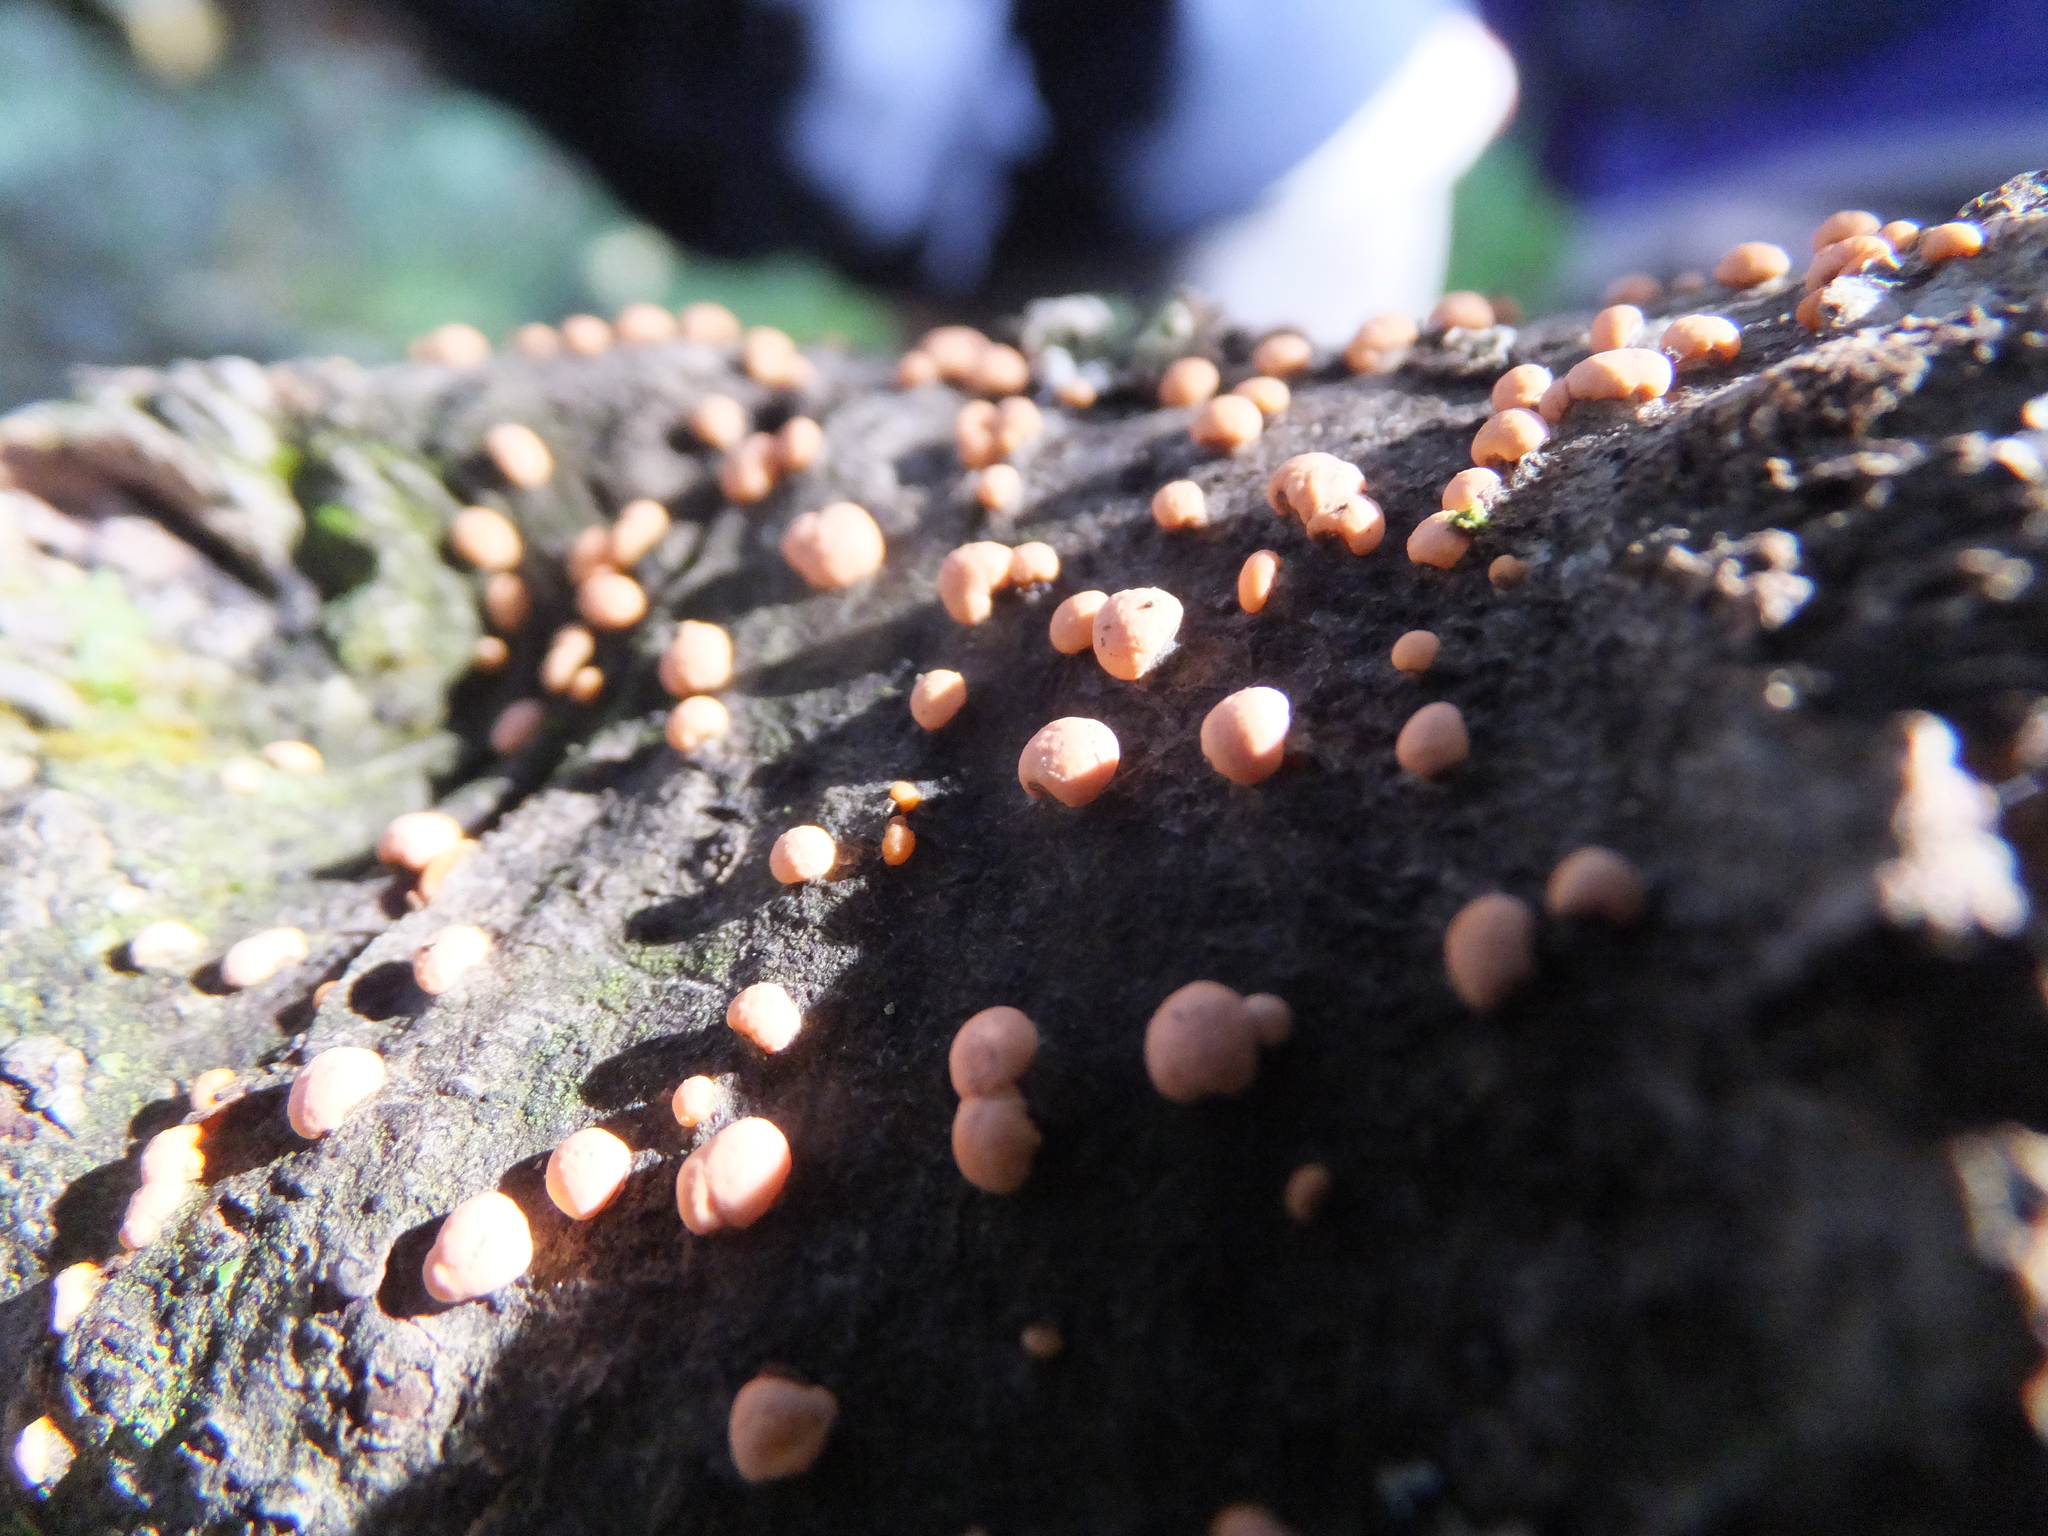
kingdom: Protozoa
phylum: Mycetozoa
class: Myxomycetes
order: Cribrariales
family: Tubiferaceae
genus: Lycogala
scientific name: Lycogala epidendrum
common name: Wolf's milk
